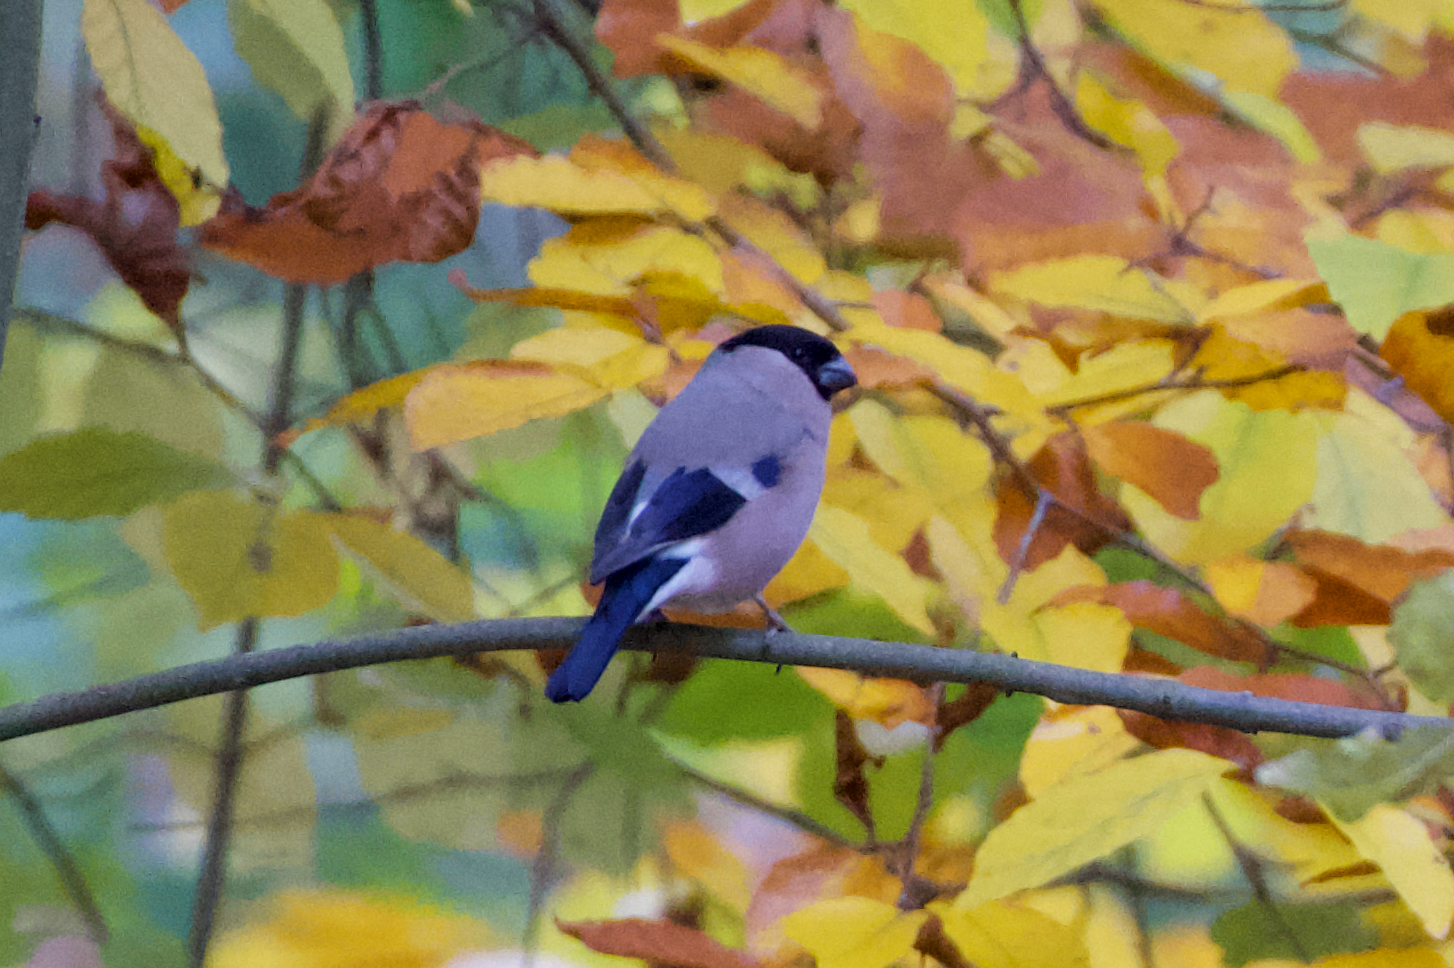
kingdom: Animalia
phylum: Chordata
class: Aves
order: Passeriformes
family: Fringillidae
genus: Pyrrhula
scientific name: Pyrrhula pyrrhula
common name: Eurasian bullfinch
